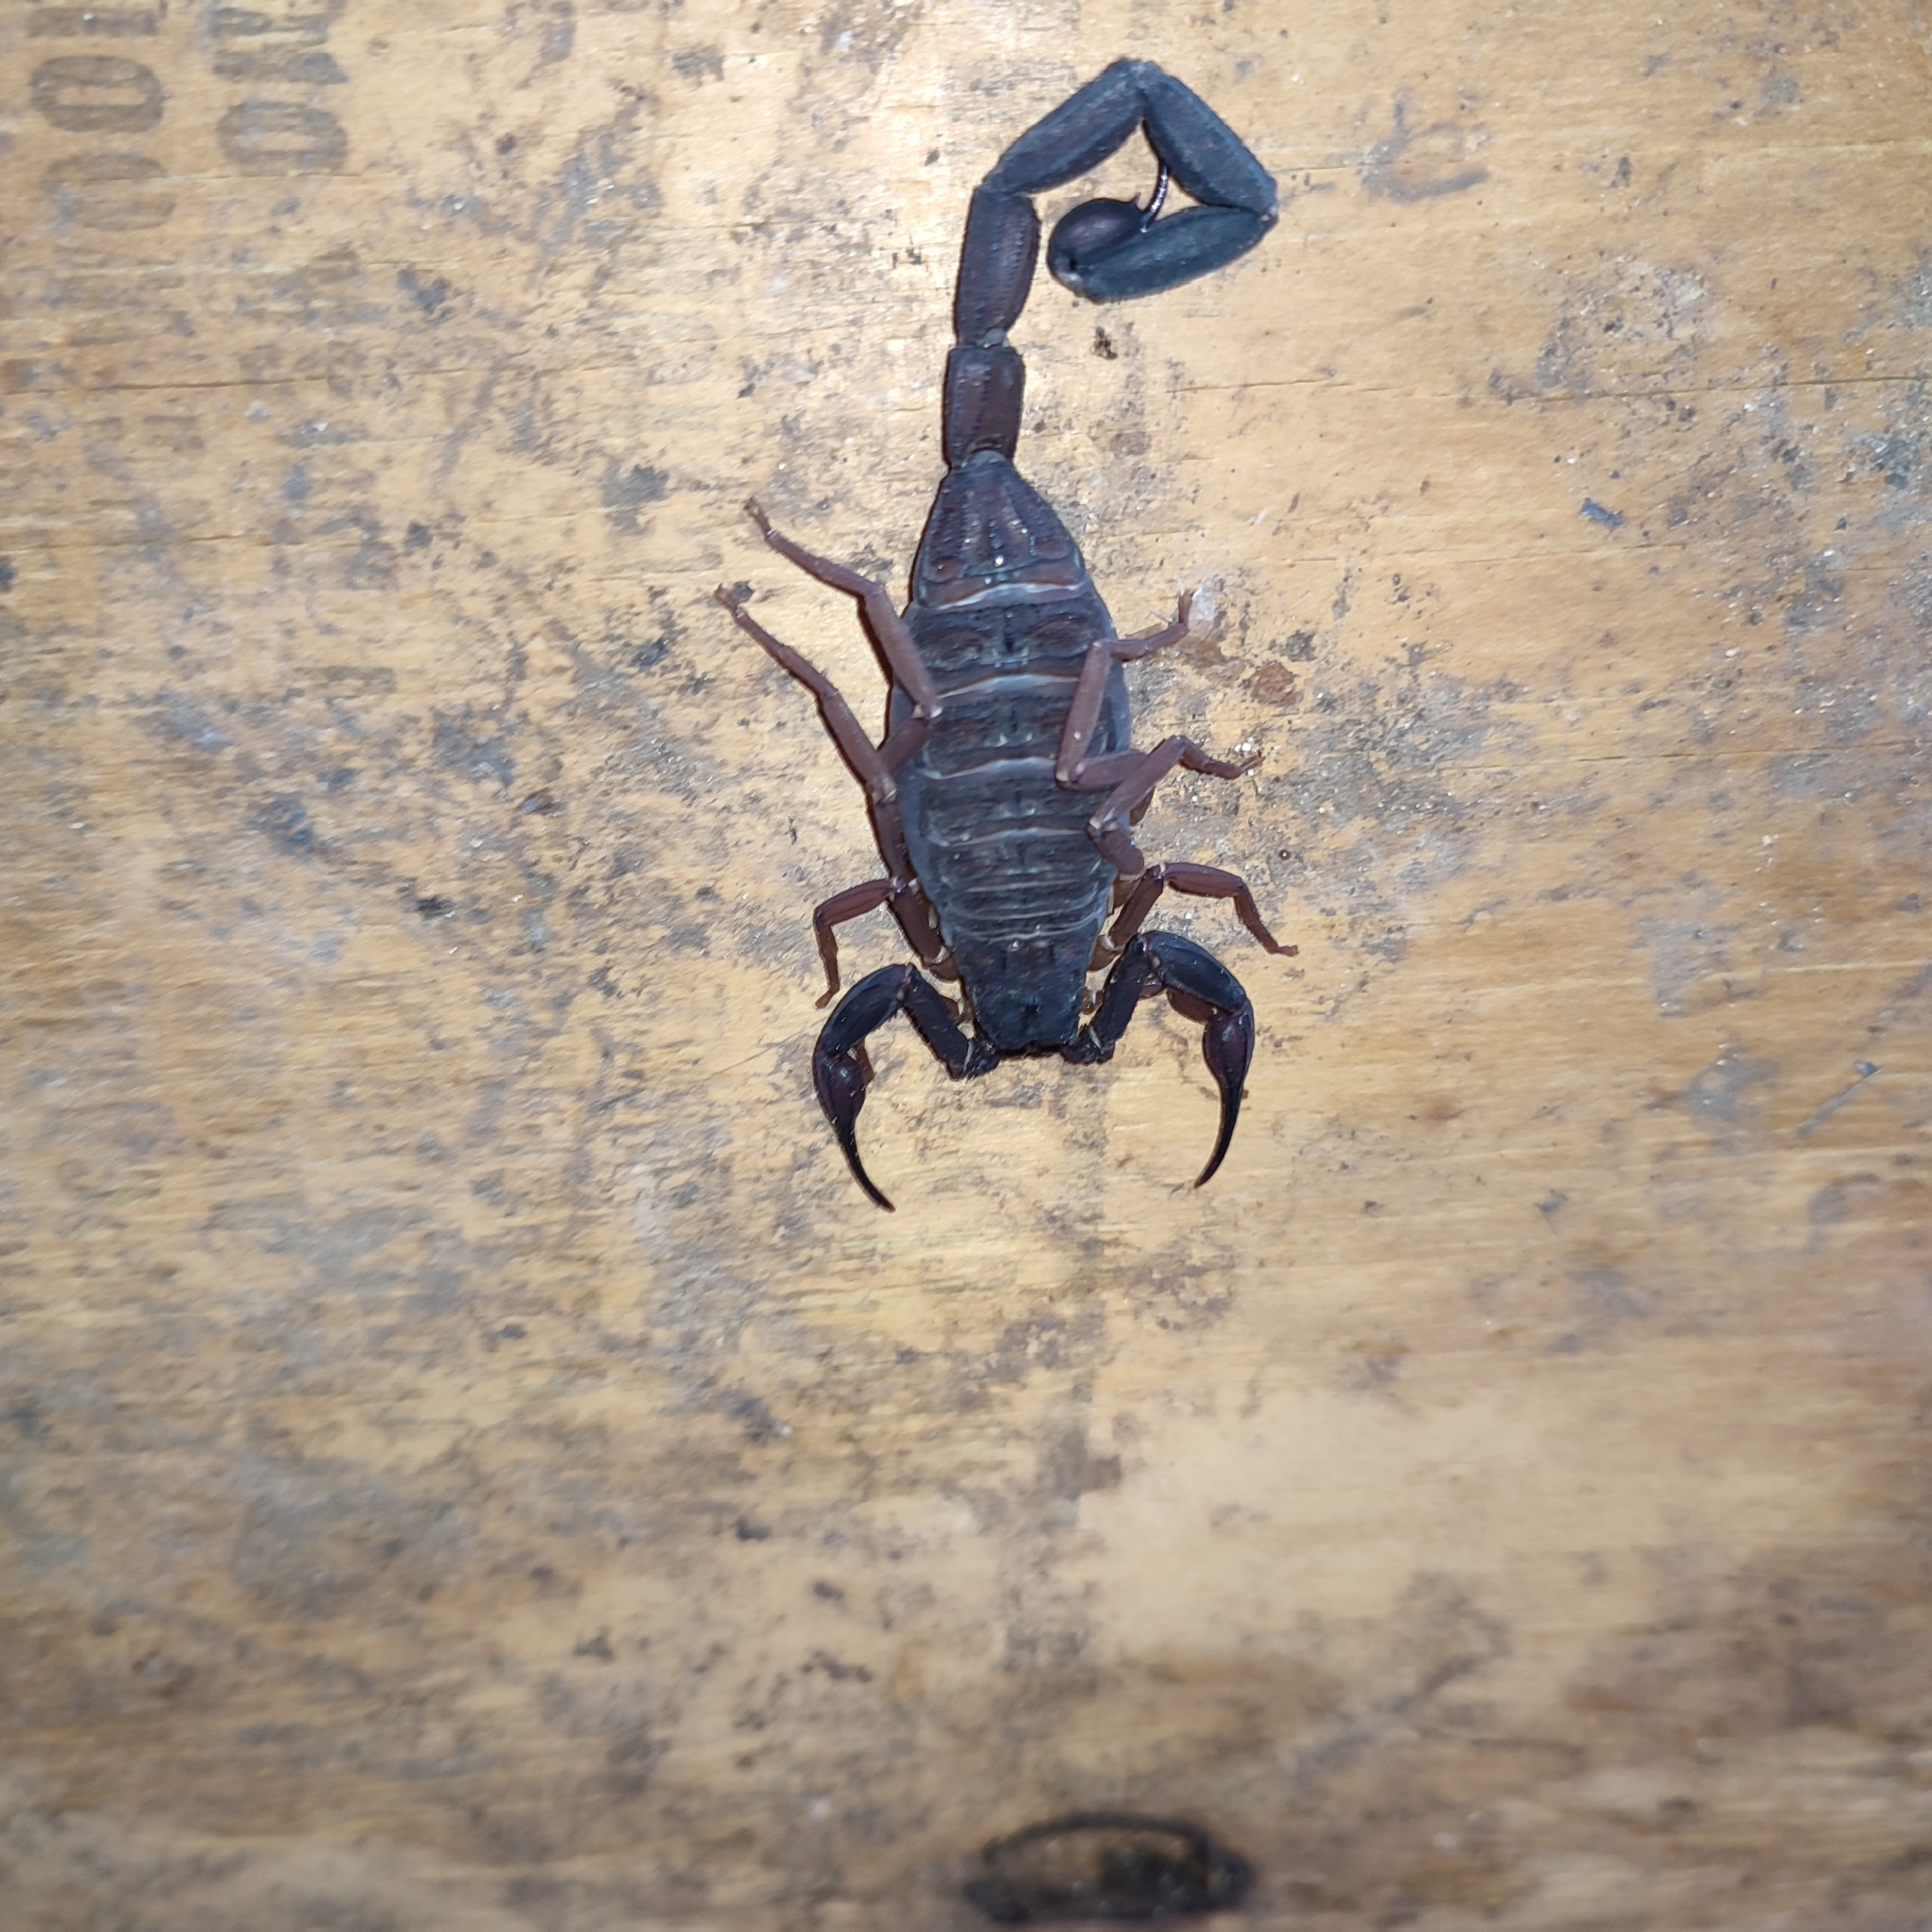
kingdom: Animalia
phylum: Arthropoda
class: Arachnida
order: Scorpiones
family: Buthidae
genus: Centruroides
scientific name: Centruroides gracilis
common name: Scorpions
